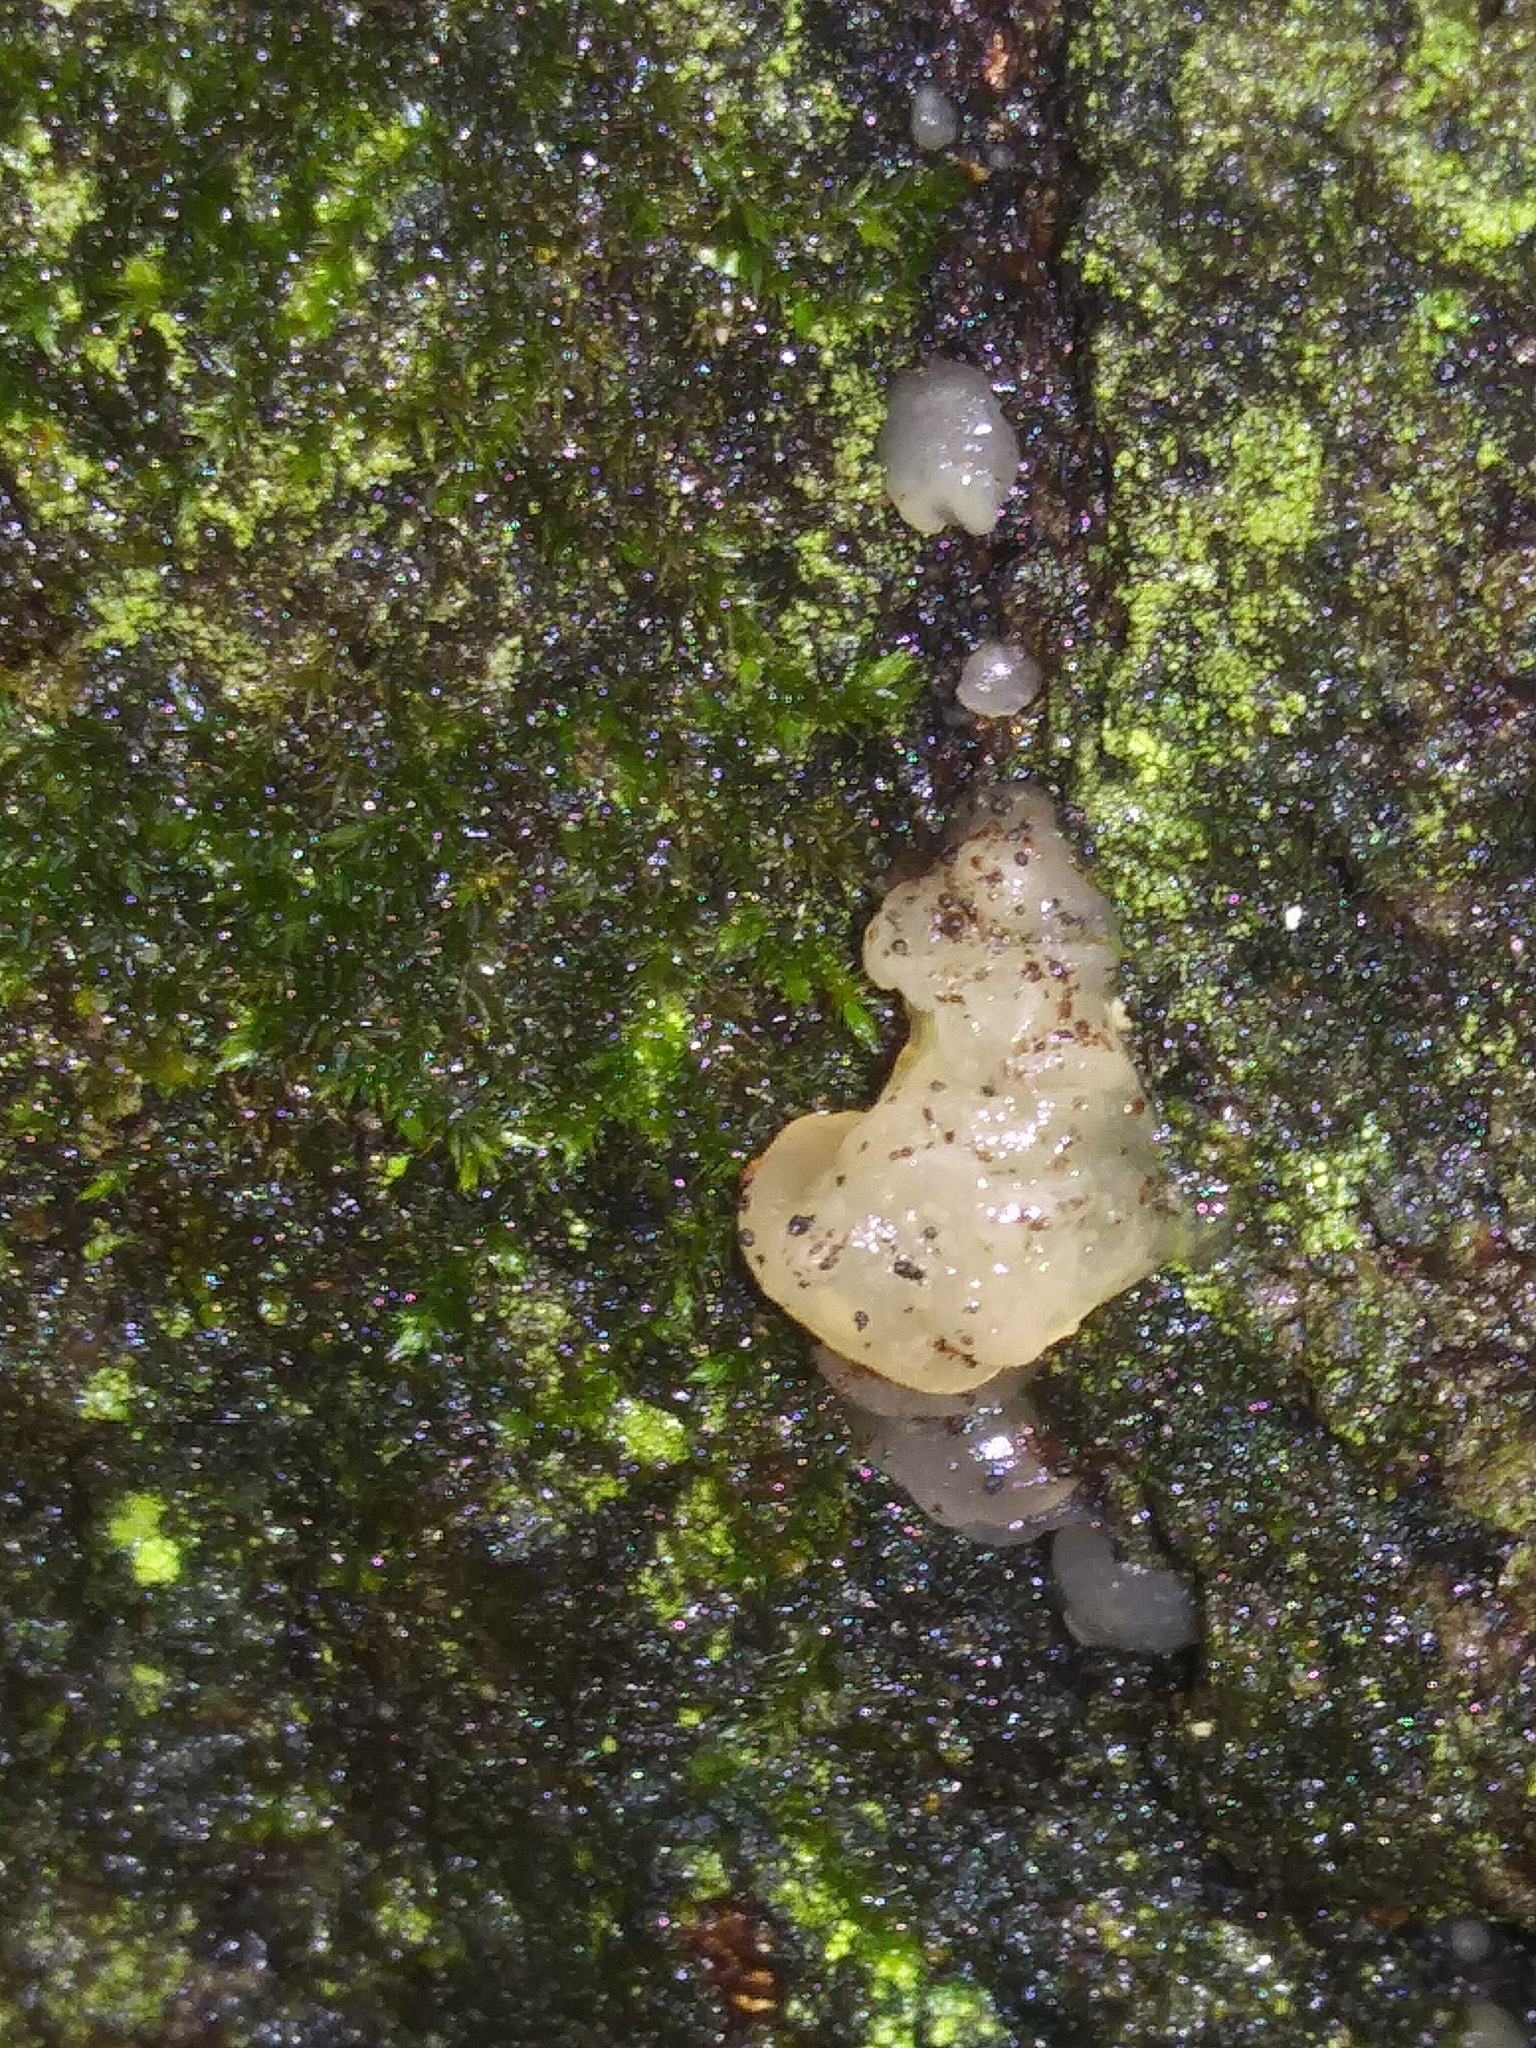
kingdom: Fungi
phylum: Basidiomycota
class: Agaricomycetes
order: Auriculariales
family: Hyaloriaceae
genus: Myxarium
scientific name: Myxarium nucleatum
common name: Crystal brain fungus
